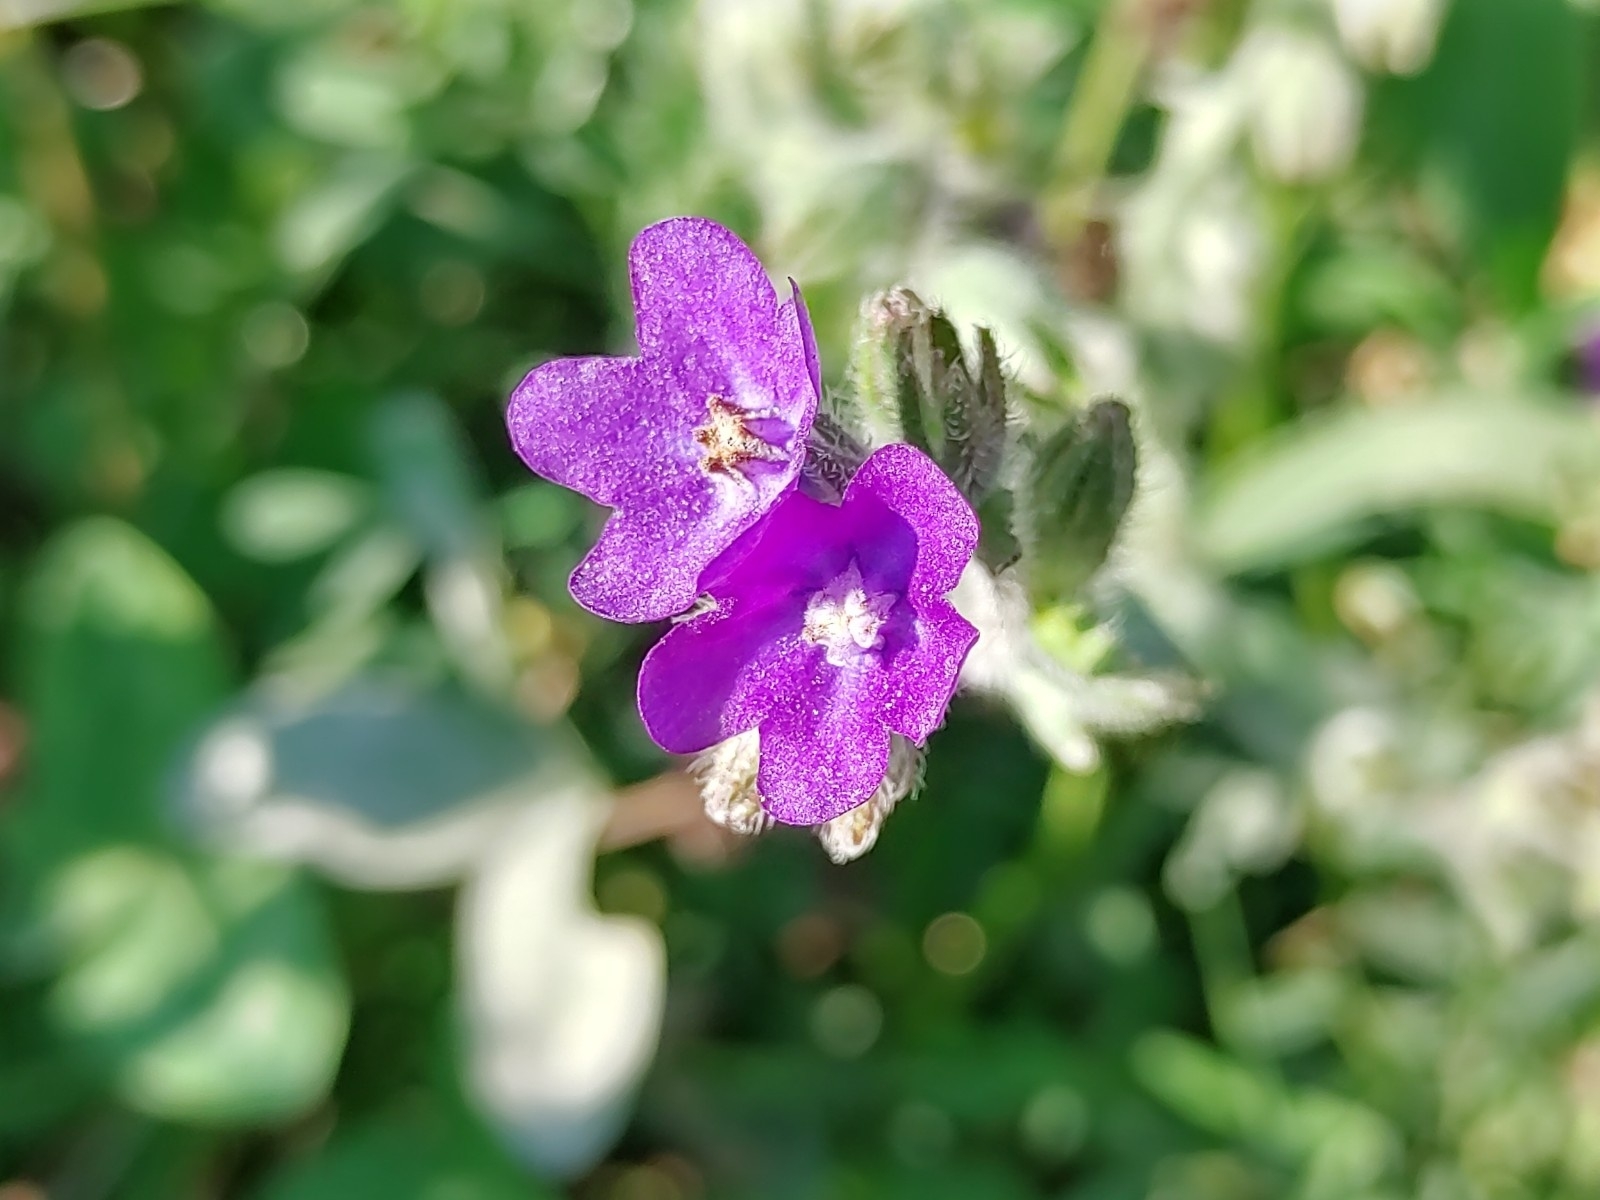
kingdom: Plantae
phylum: Tracheophyta
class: Magnoliopsida
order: Boraginales
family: Boraginaceae
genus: Anchusa
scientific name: Anchusa officinalis
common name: Alkanet
